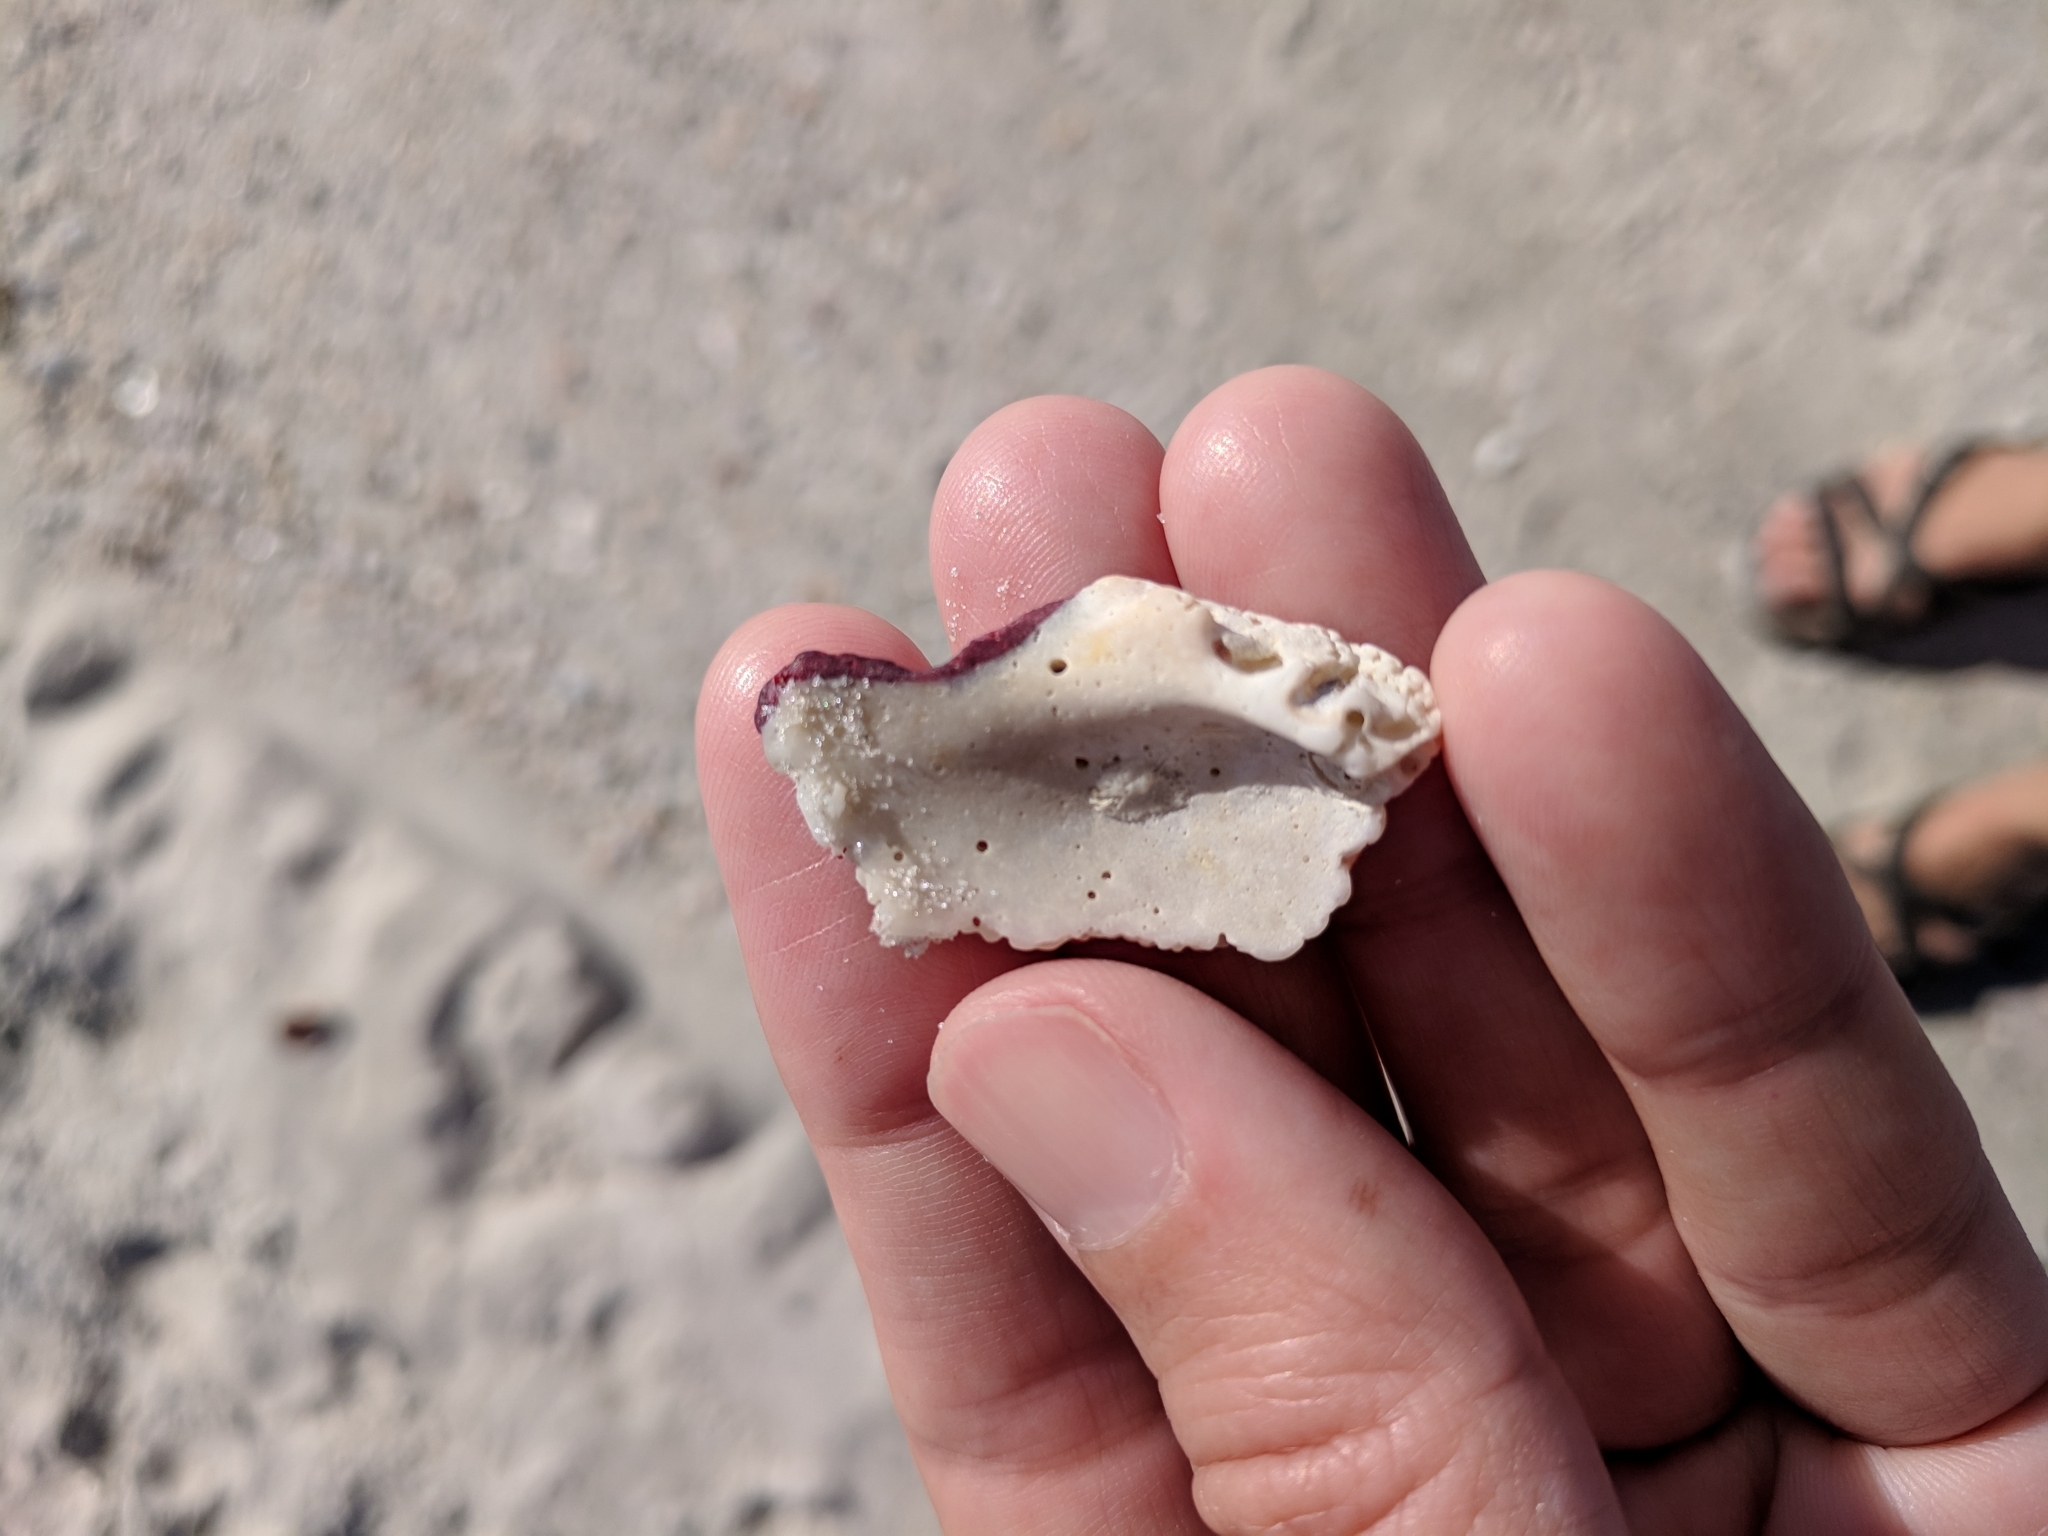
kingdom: Animalia
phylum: Mollusca
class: Bivalvia
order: Pectinida
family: Spondylidae
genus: Spondylus
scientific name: Spondylus tenuis
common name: Digitate thorny oyster
